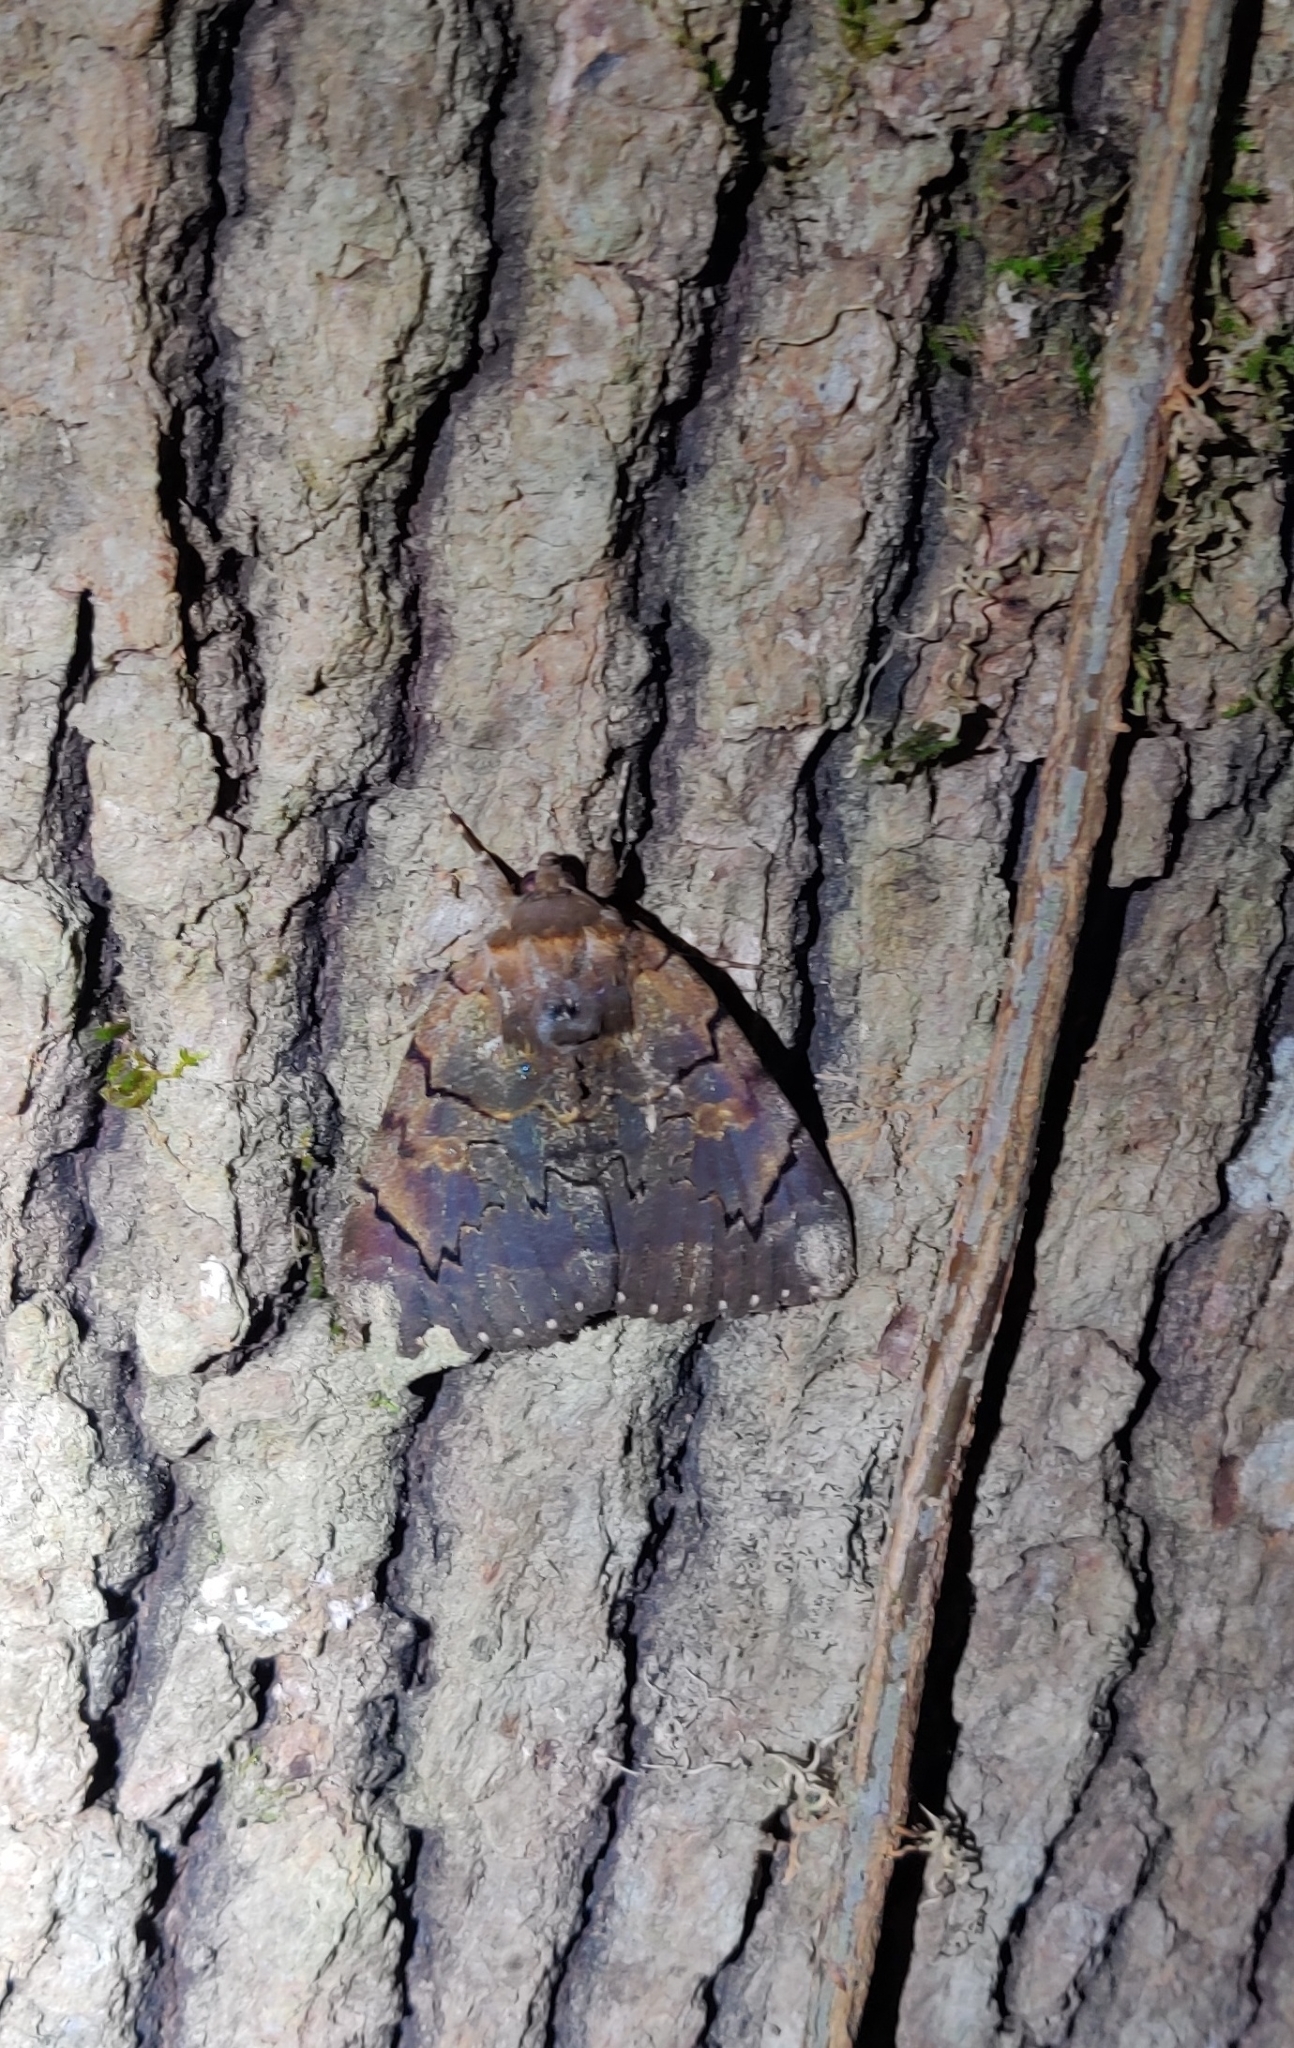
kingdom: Animalia
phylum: Arthropoda
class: Insecta
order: Lepidoptera
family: Erebidae
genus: Catocala
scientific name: Catocala carissima
